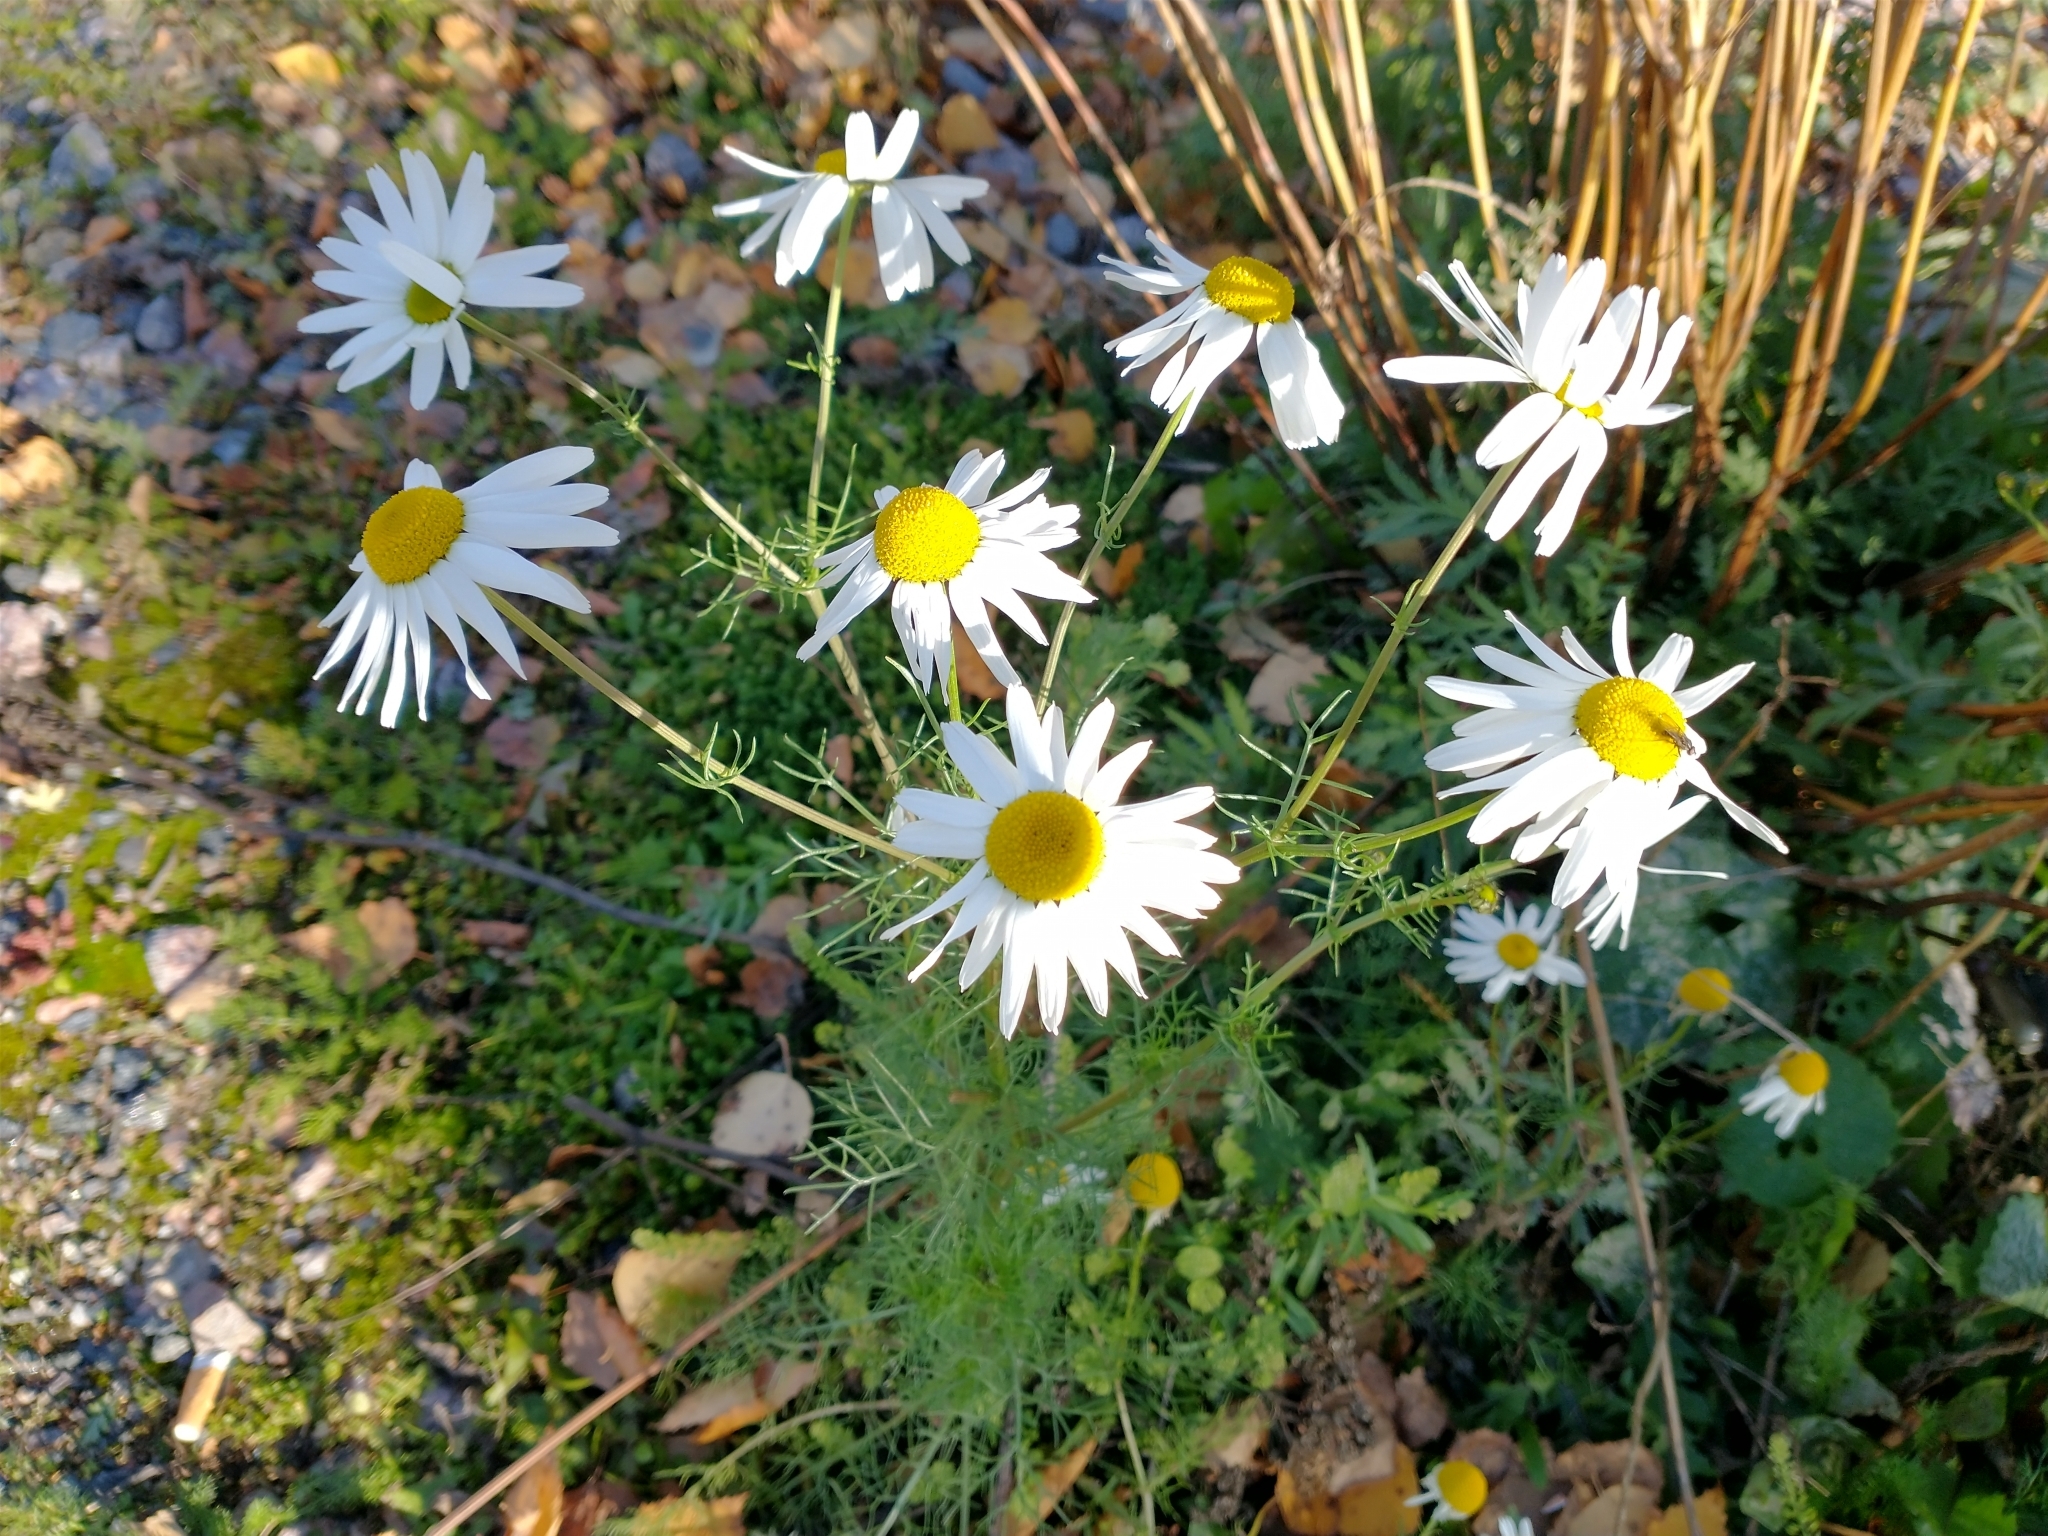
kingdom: Plantae
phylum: Tracheophyta
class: Magnoliopsida
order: Asterales
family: Asteraceae
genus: Tripleurospermum
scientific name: Tripleurospermum inodorum
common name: Scentless mayweed
